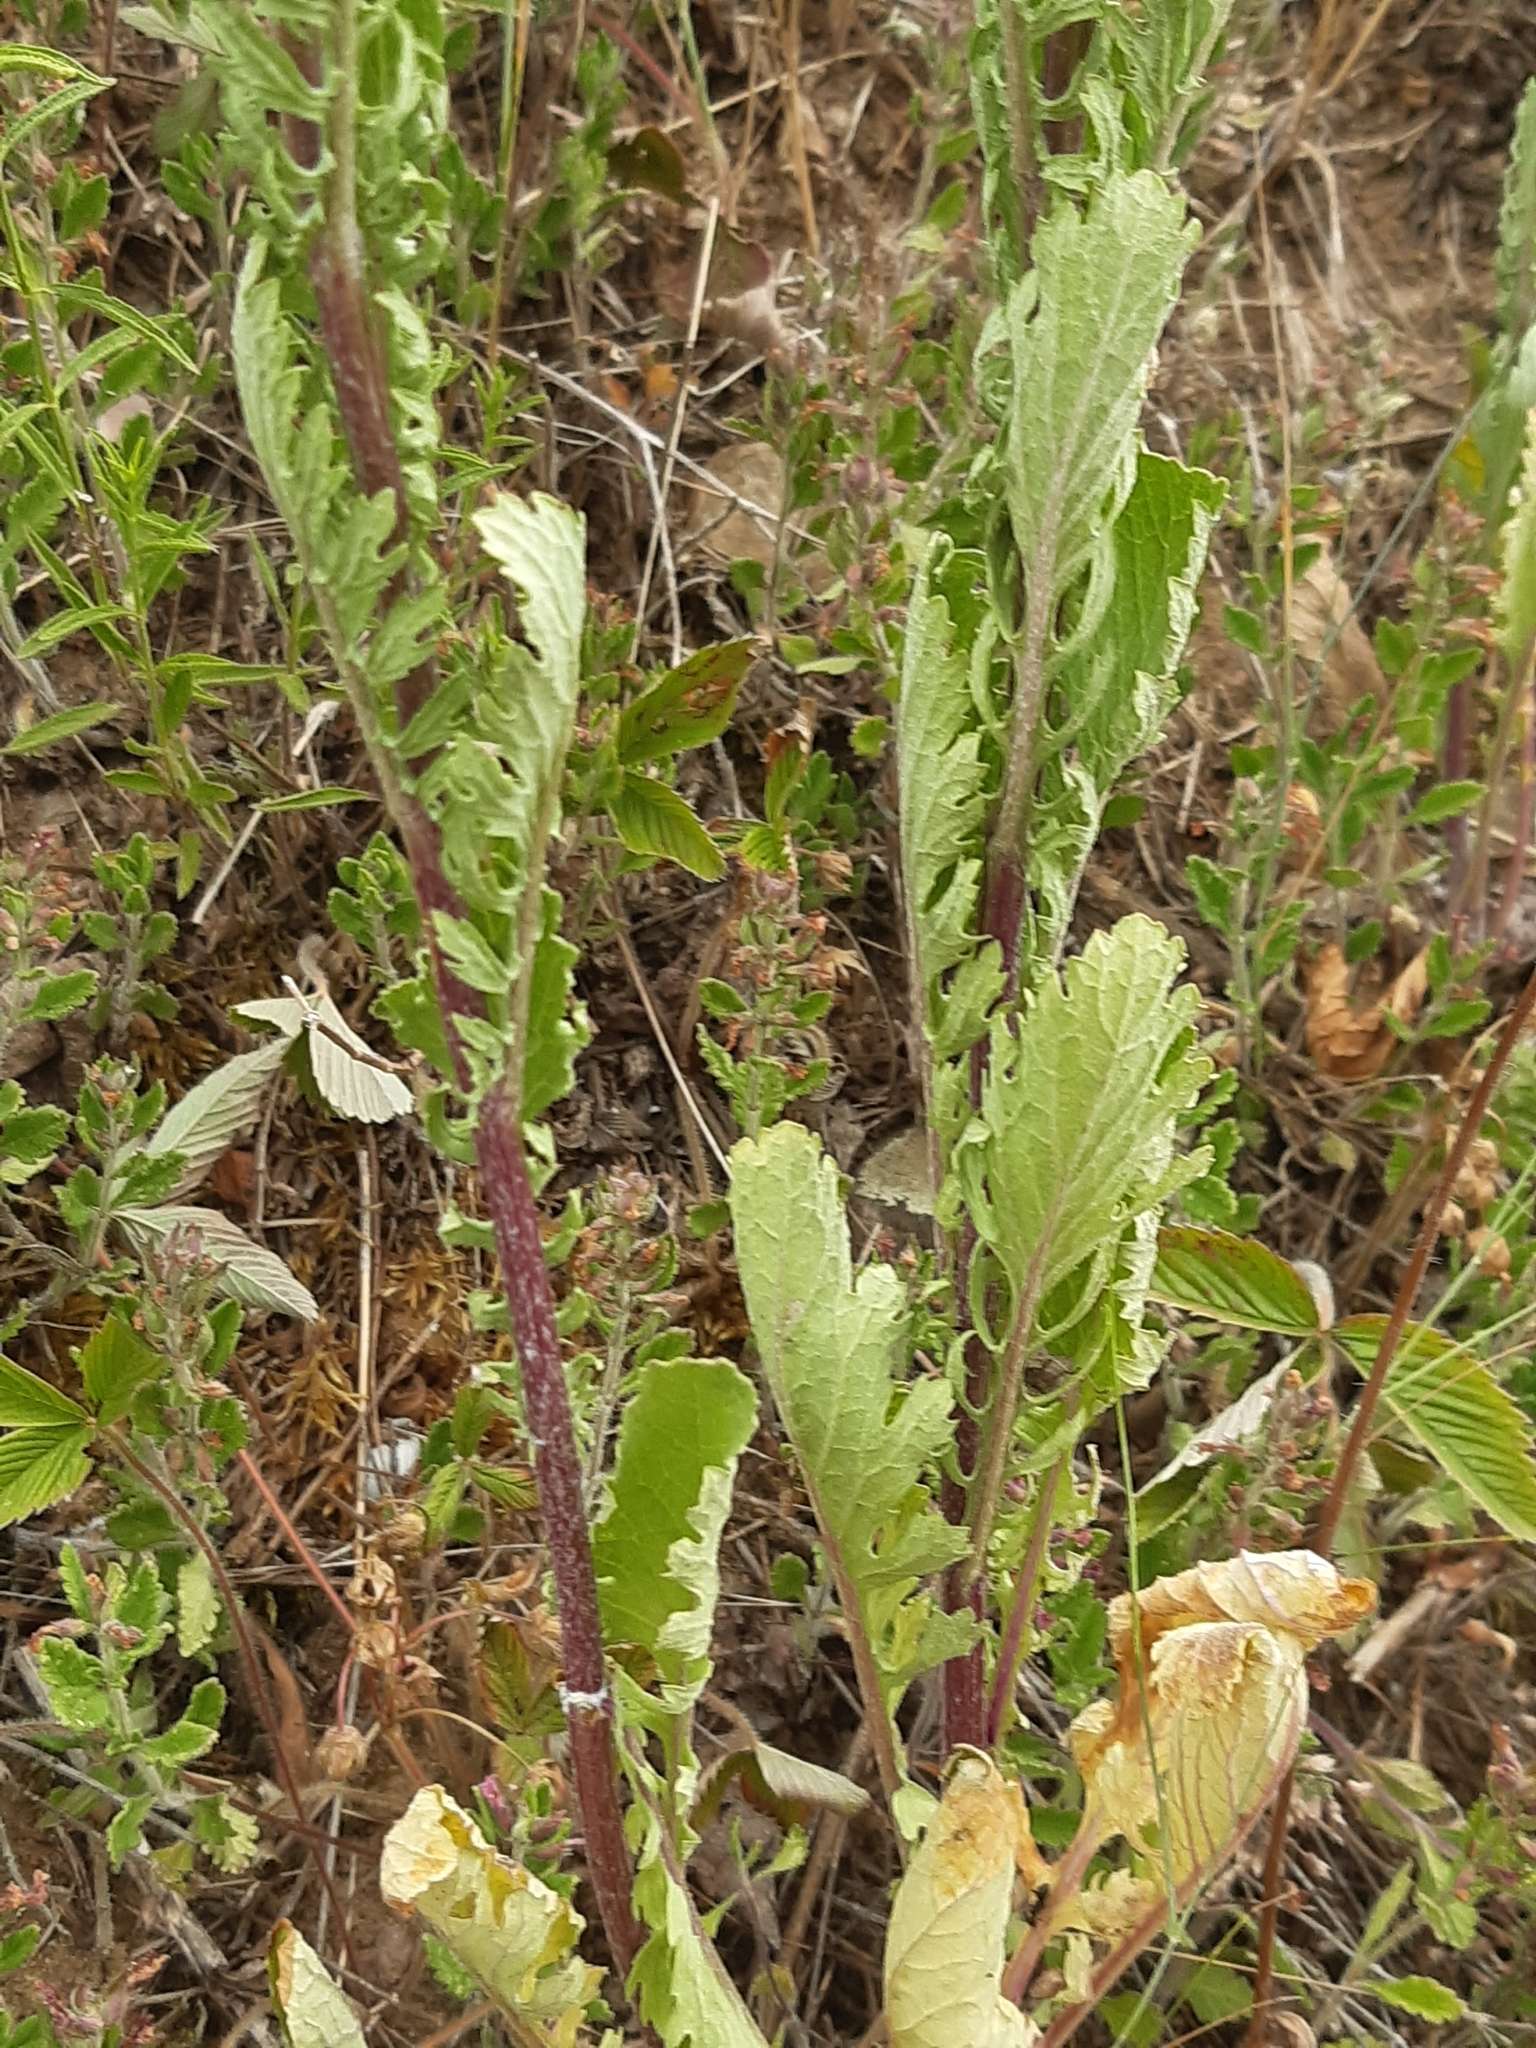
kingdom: Plantae
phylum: Tracheophyta
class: Magnoliopsida
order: Asterales
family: Asteraceae
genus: Jacobaea
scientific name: Jacobaea vulgaris
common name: Stinking willie
